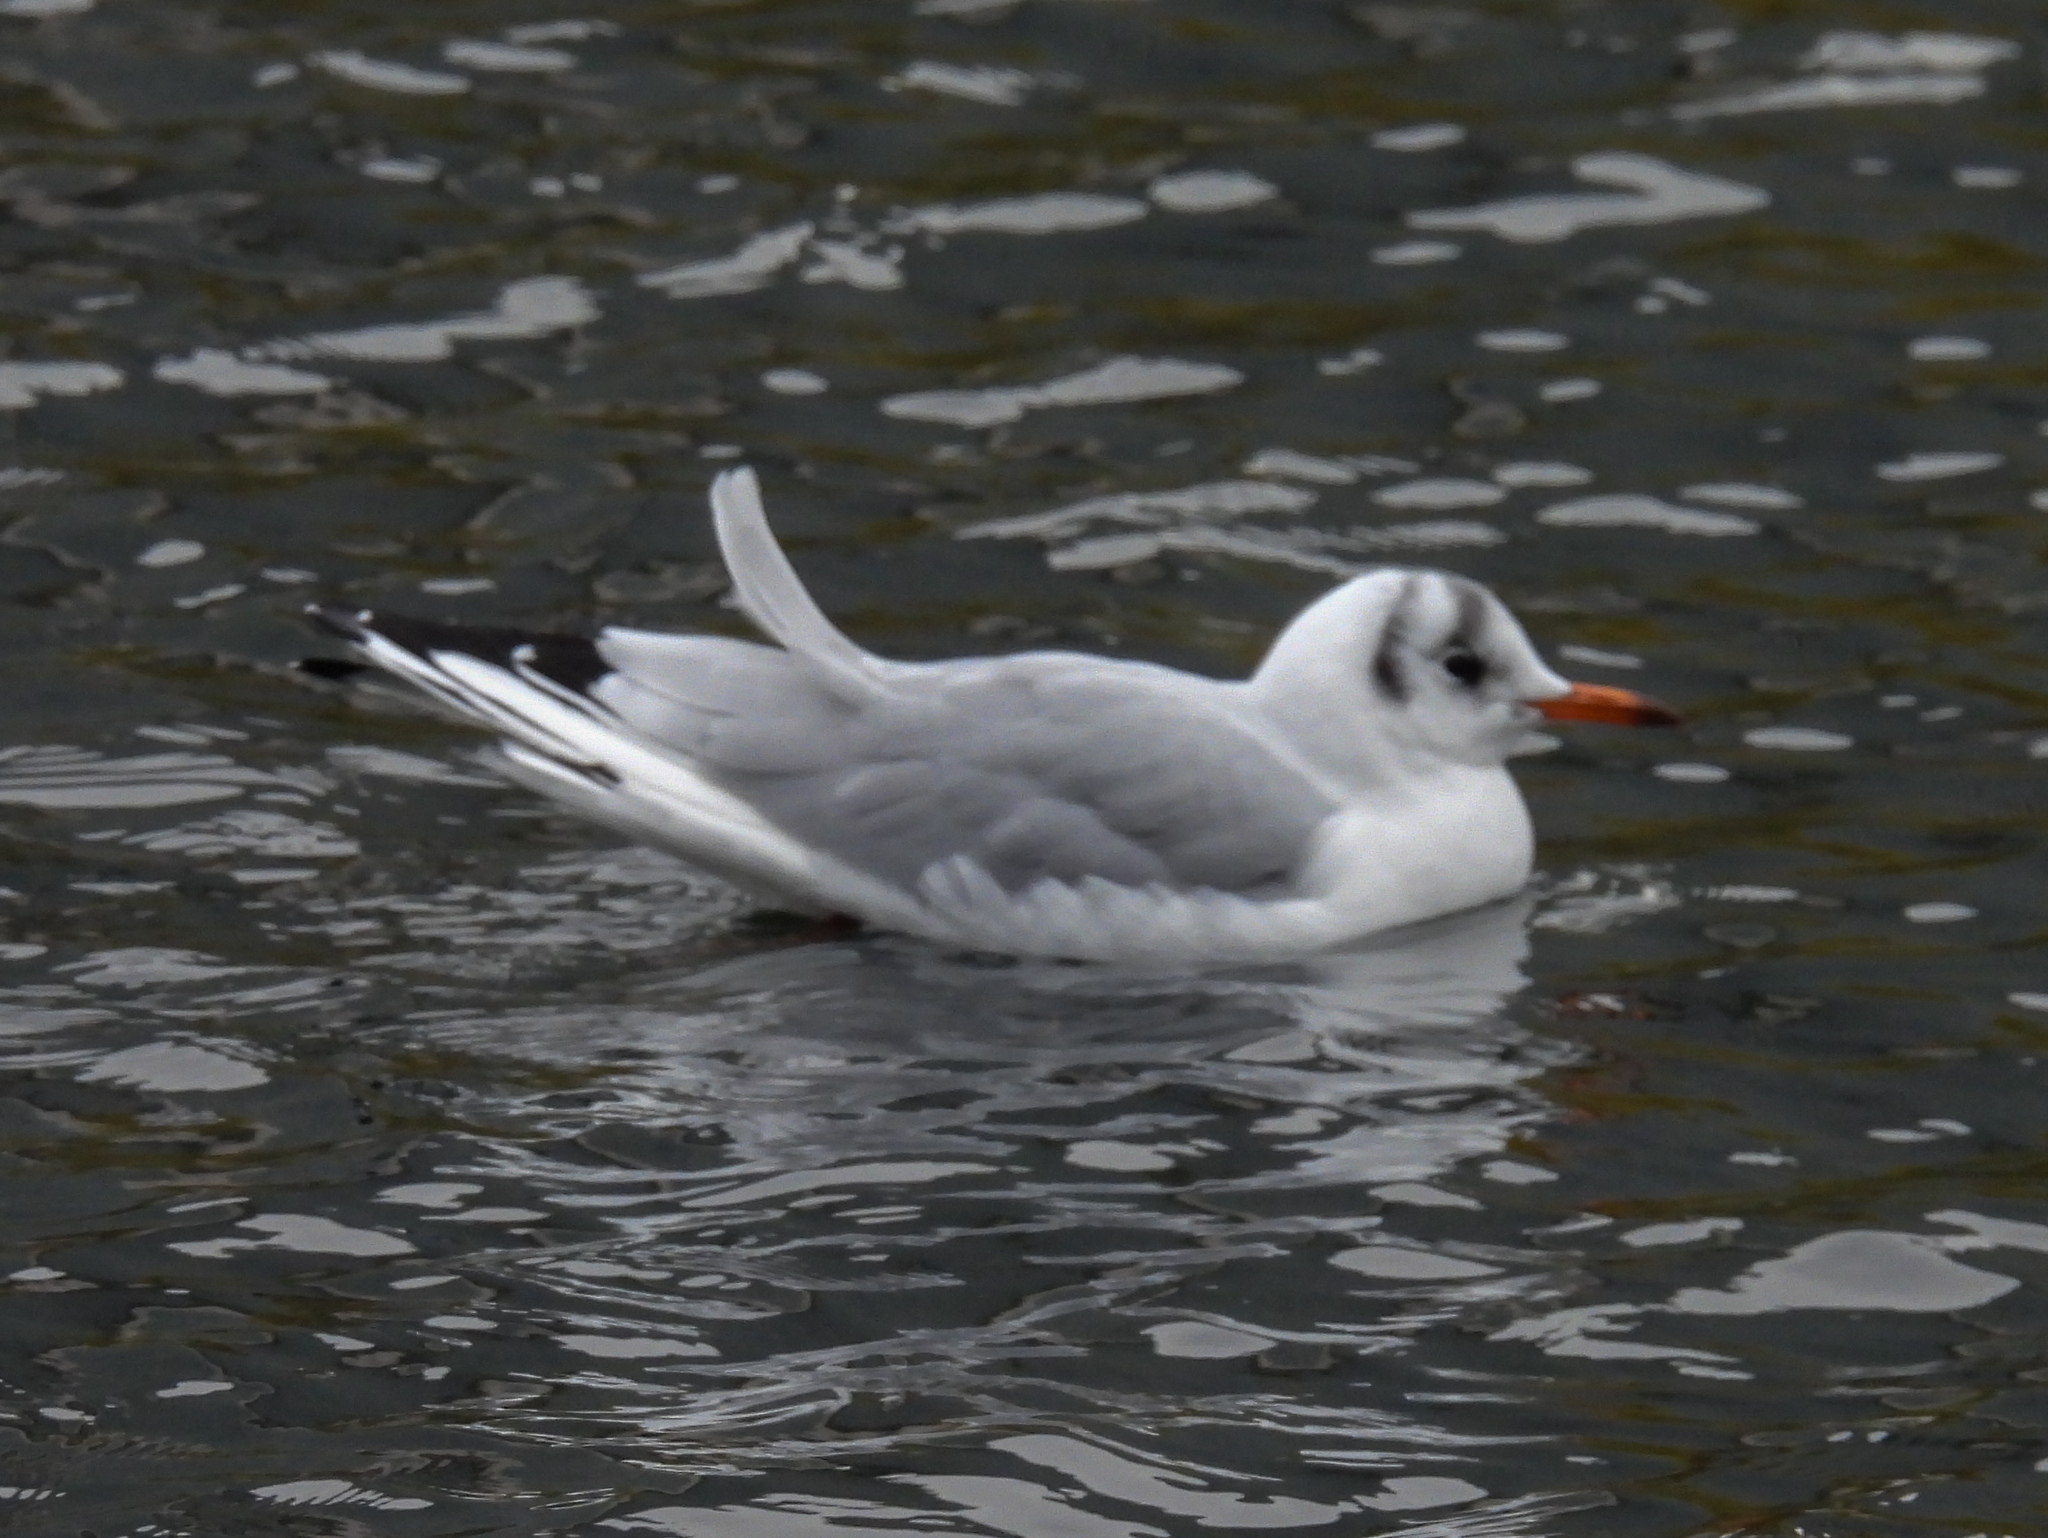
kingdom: Animalia
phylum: Chordata
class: Aves
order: Charadriiformes
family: Laridae
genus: Chroicocephalus
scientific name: Chroicocephalus ridibundus
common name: Black-headed gull
